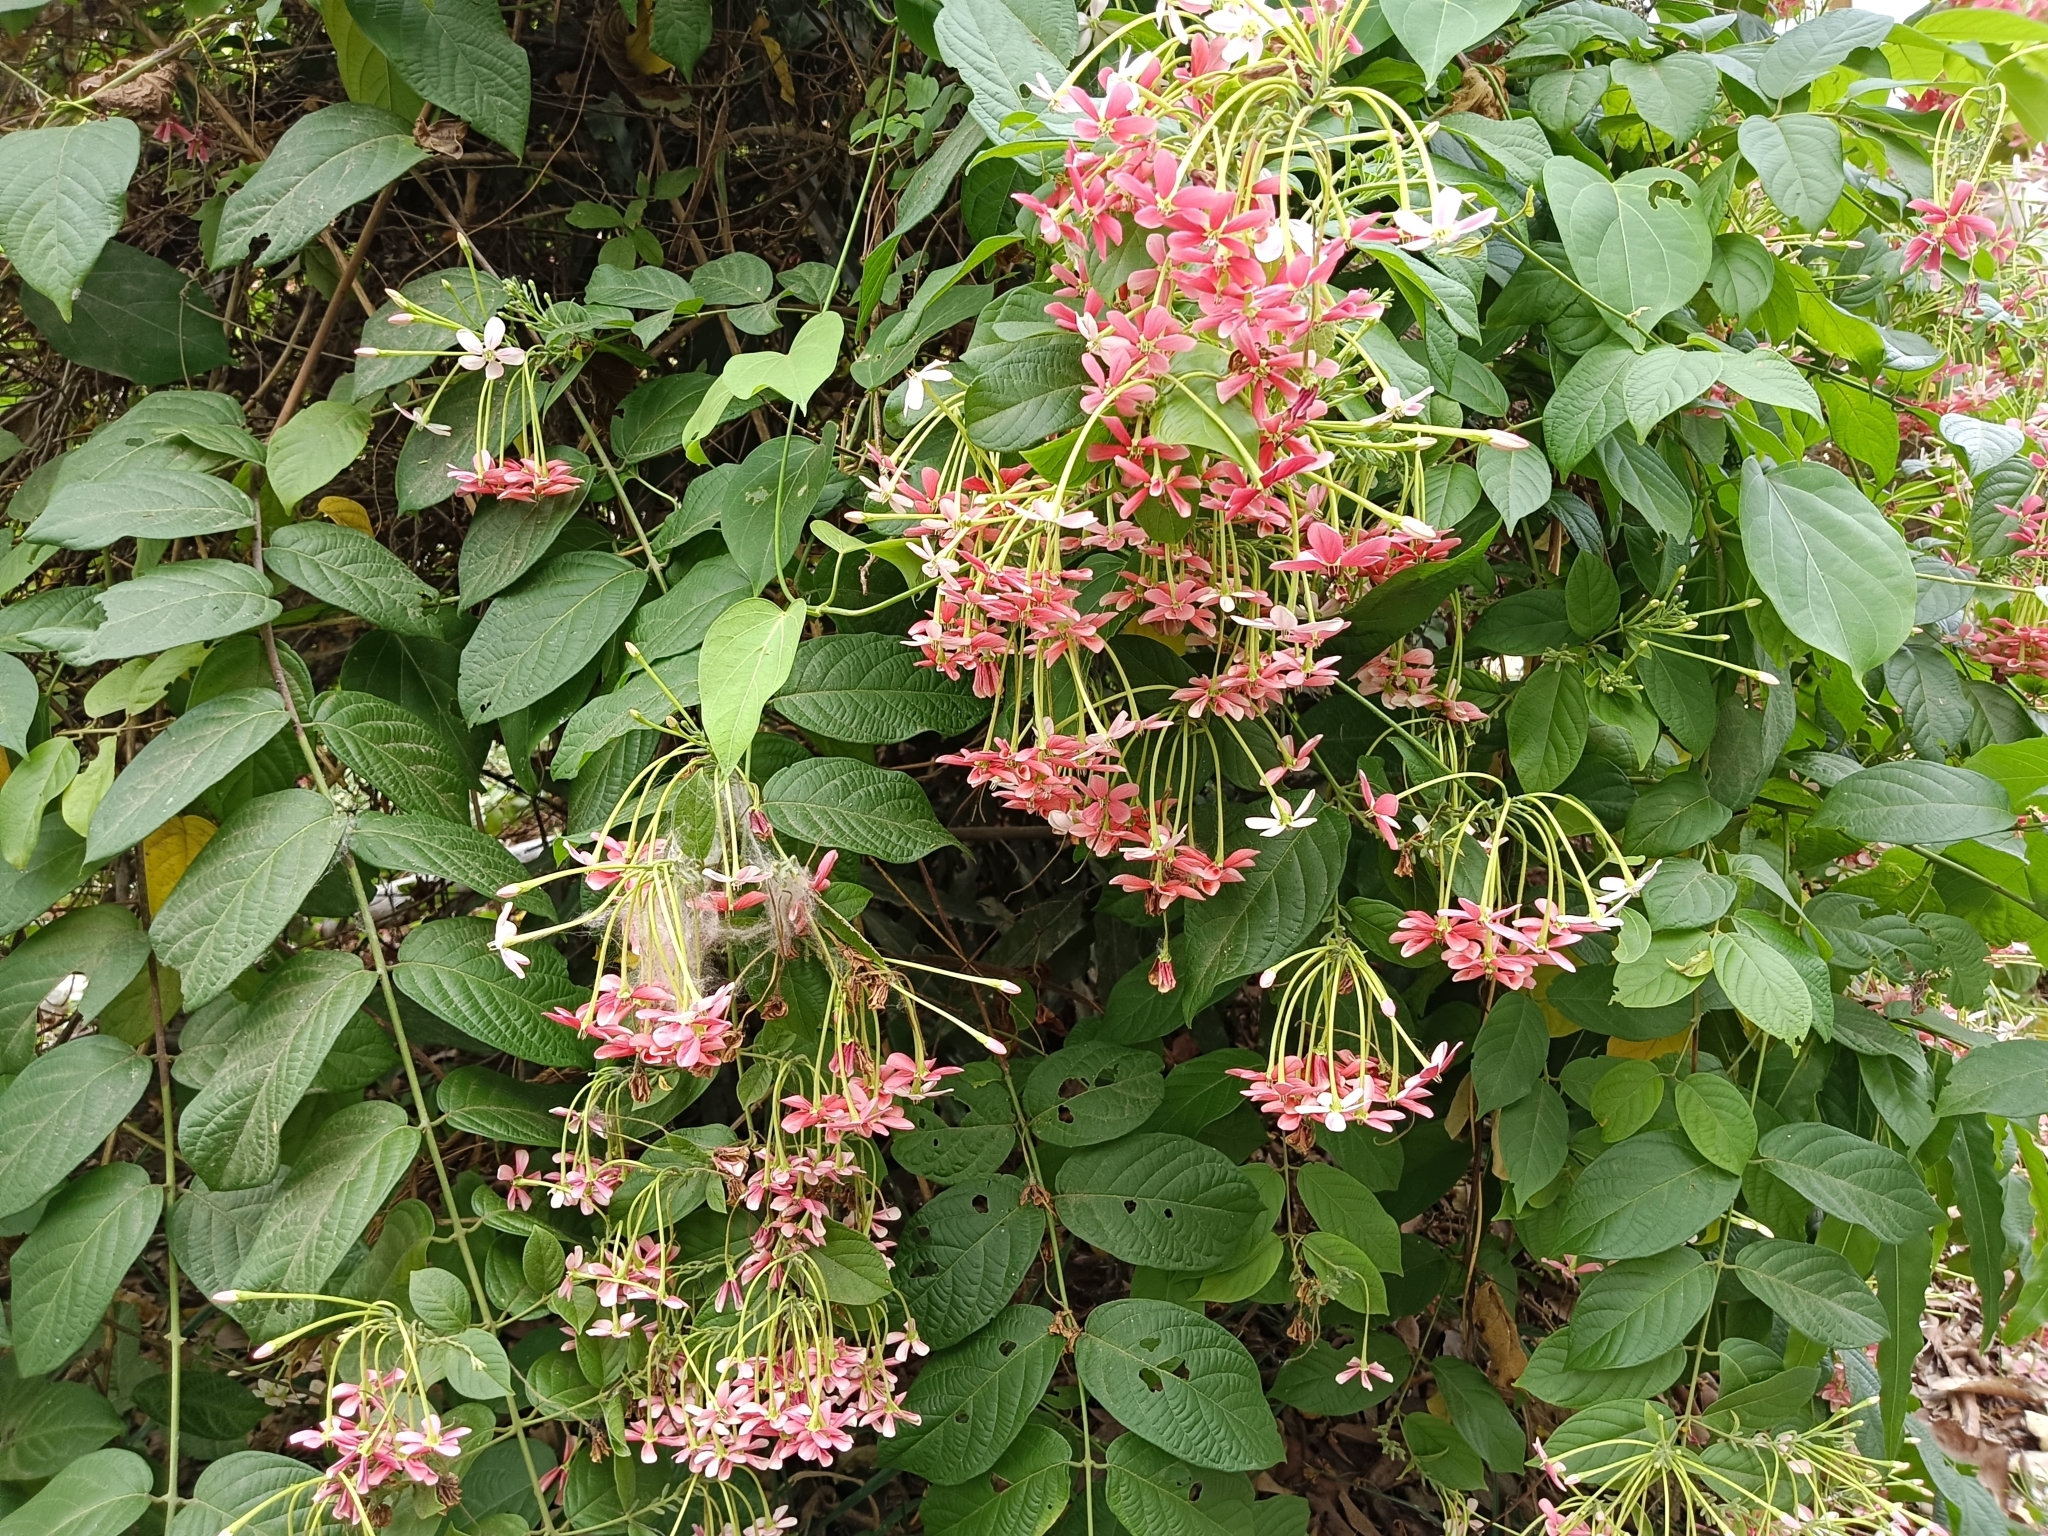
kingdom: Plantae
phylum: Tracheophyta
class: Magnoliopsida
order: Myrtales
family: Combretaceae
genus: Combretum
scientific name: Combretum indicum
